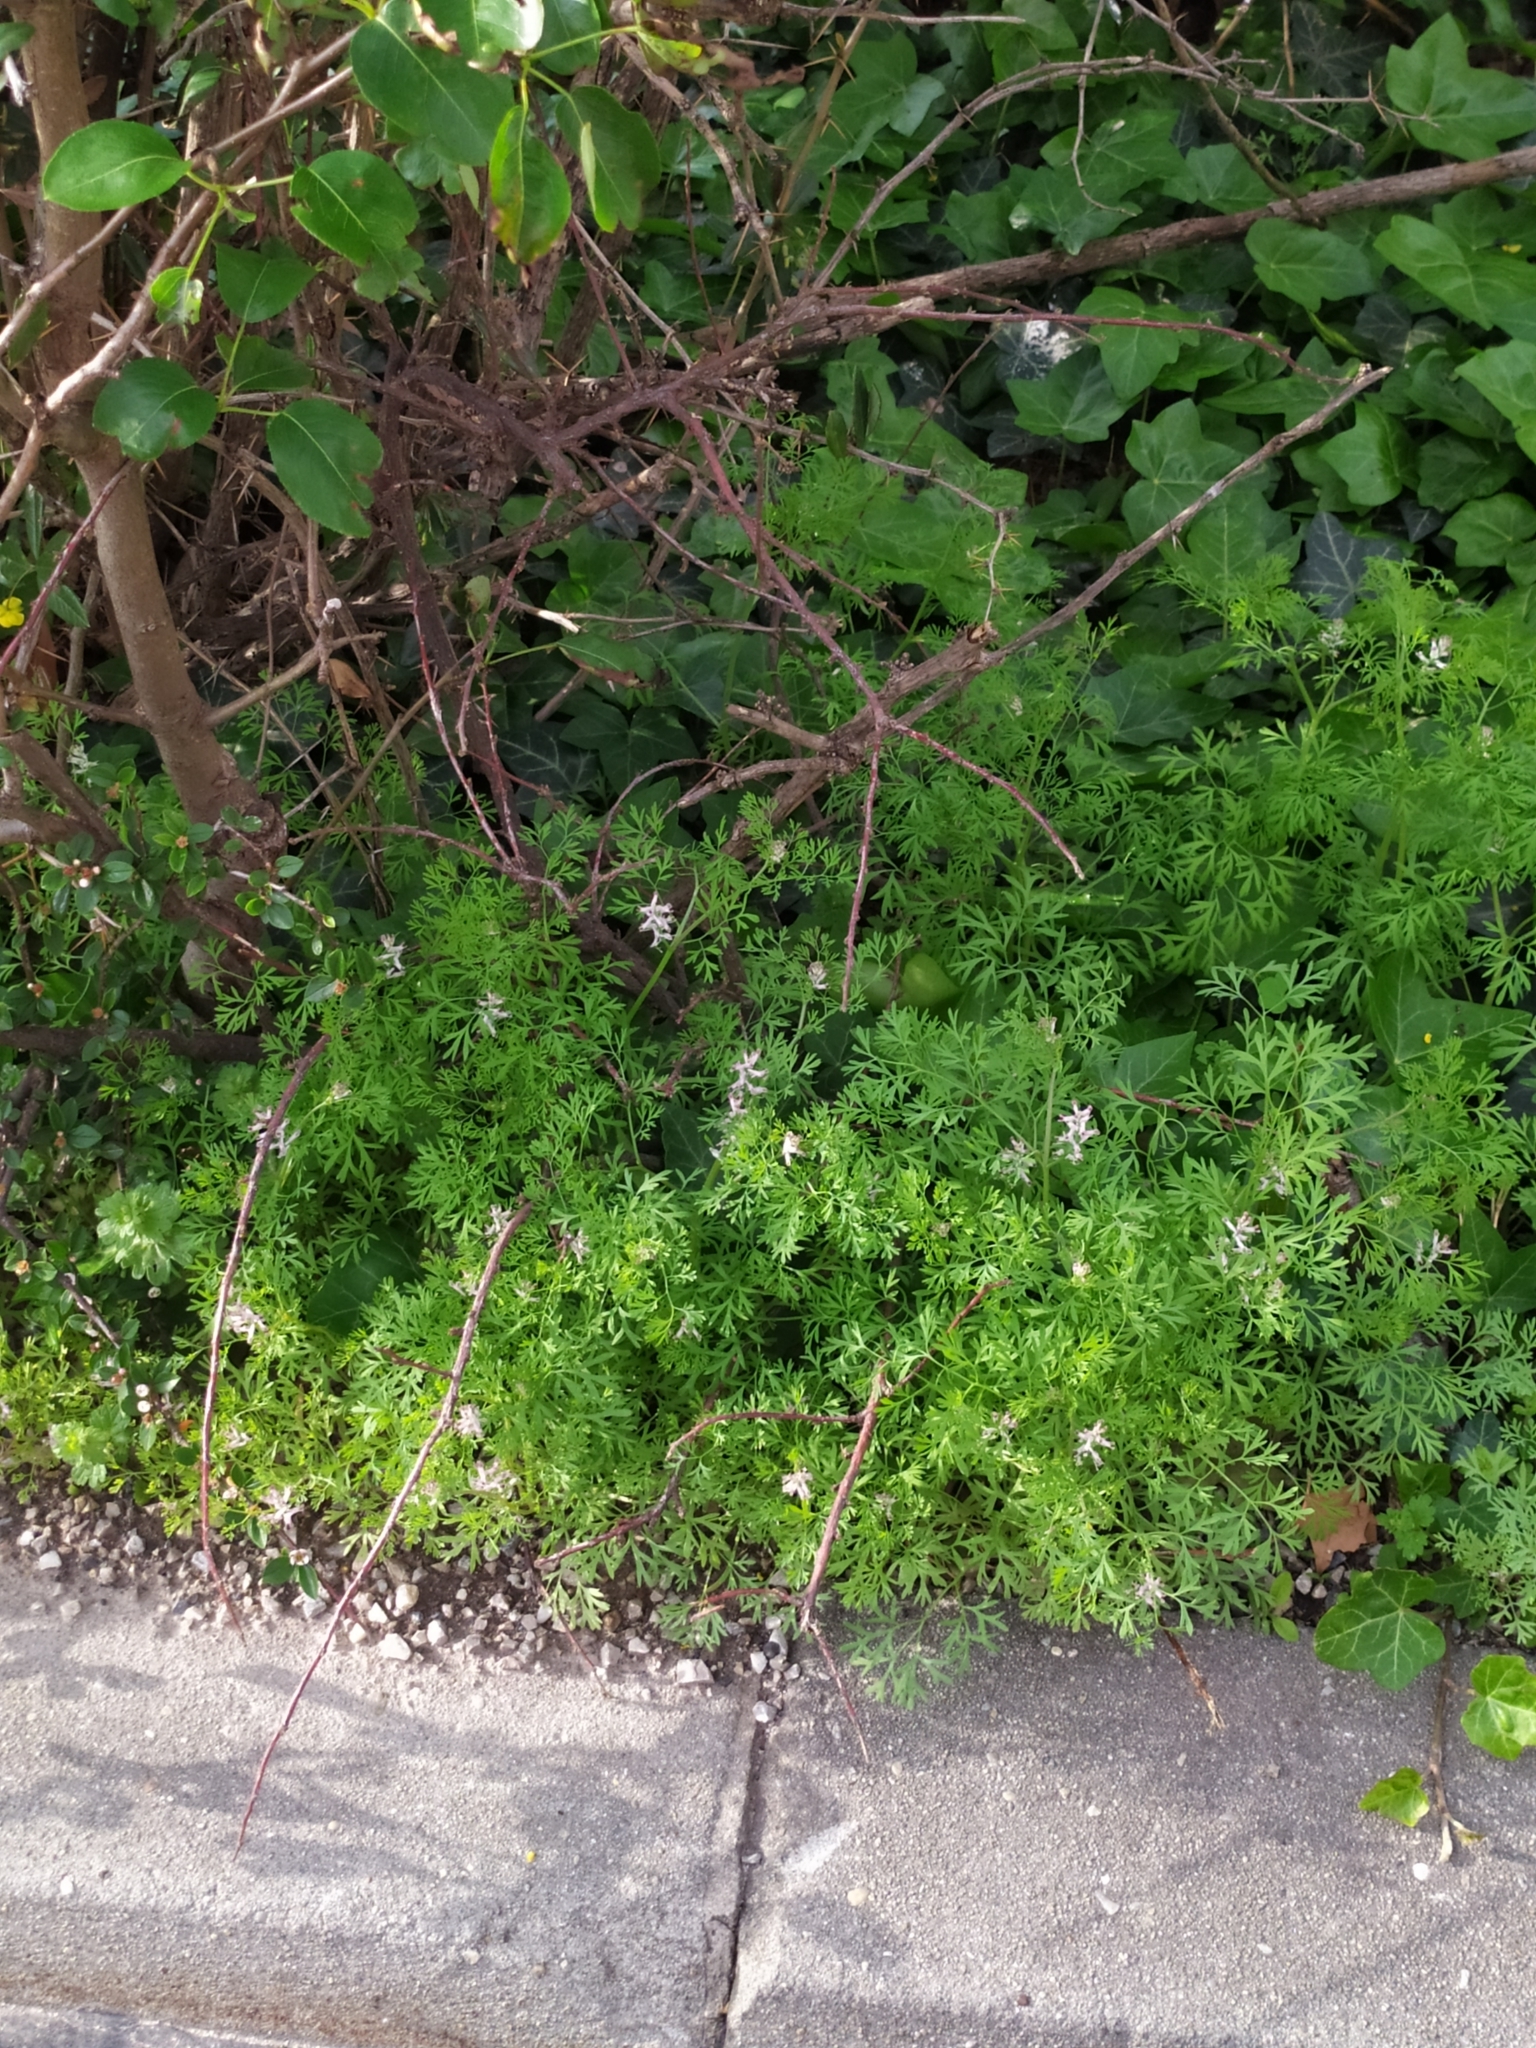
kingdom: Plantae
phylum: Tracheophyta
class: Magnoliopsida
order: Ranunculales
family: Papaveraceae
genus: Fumaria
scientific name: Fumaria vaillantii
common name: Few-flowered fumitory
